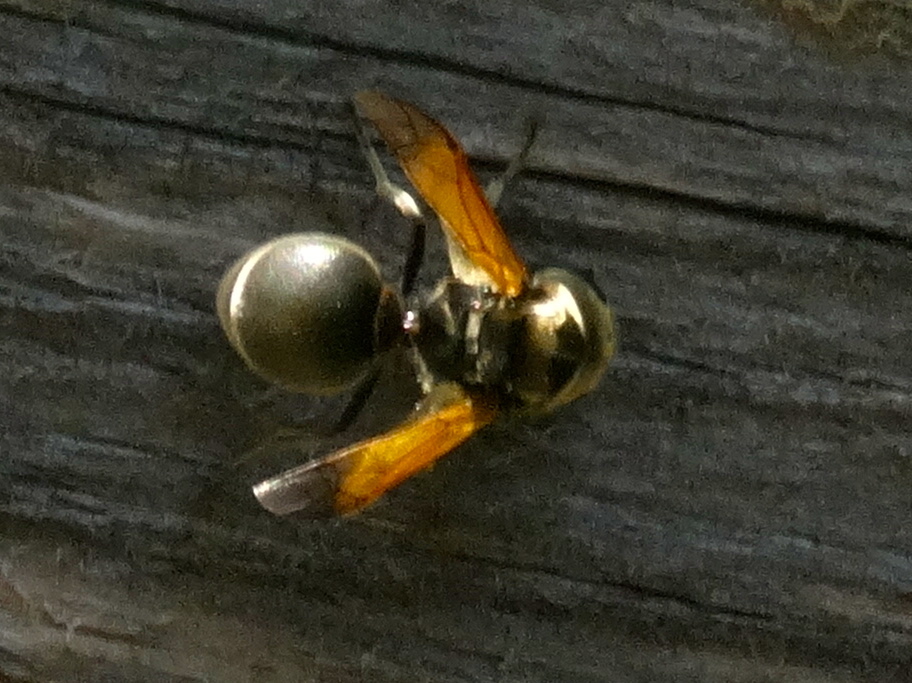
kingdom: Animalia
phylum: Arthropoda
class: Insecta
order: Hymenoptera
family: Vespidae
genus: Brachygastra
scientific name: Brachygastra mellifica
